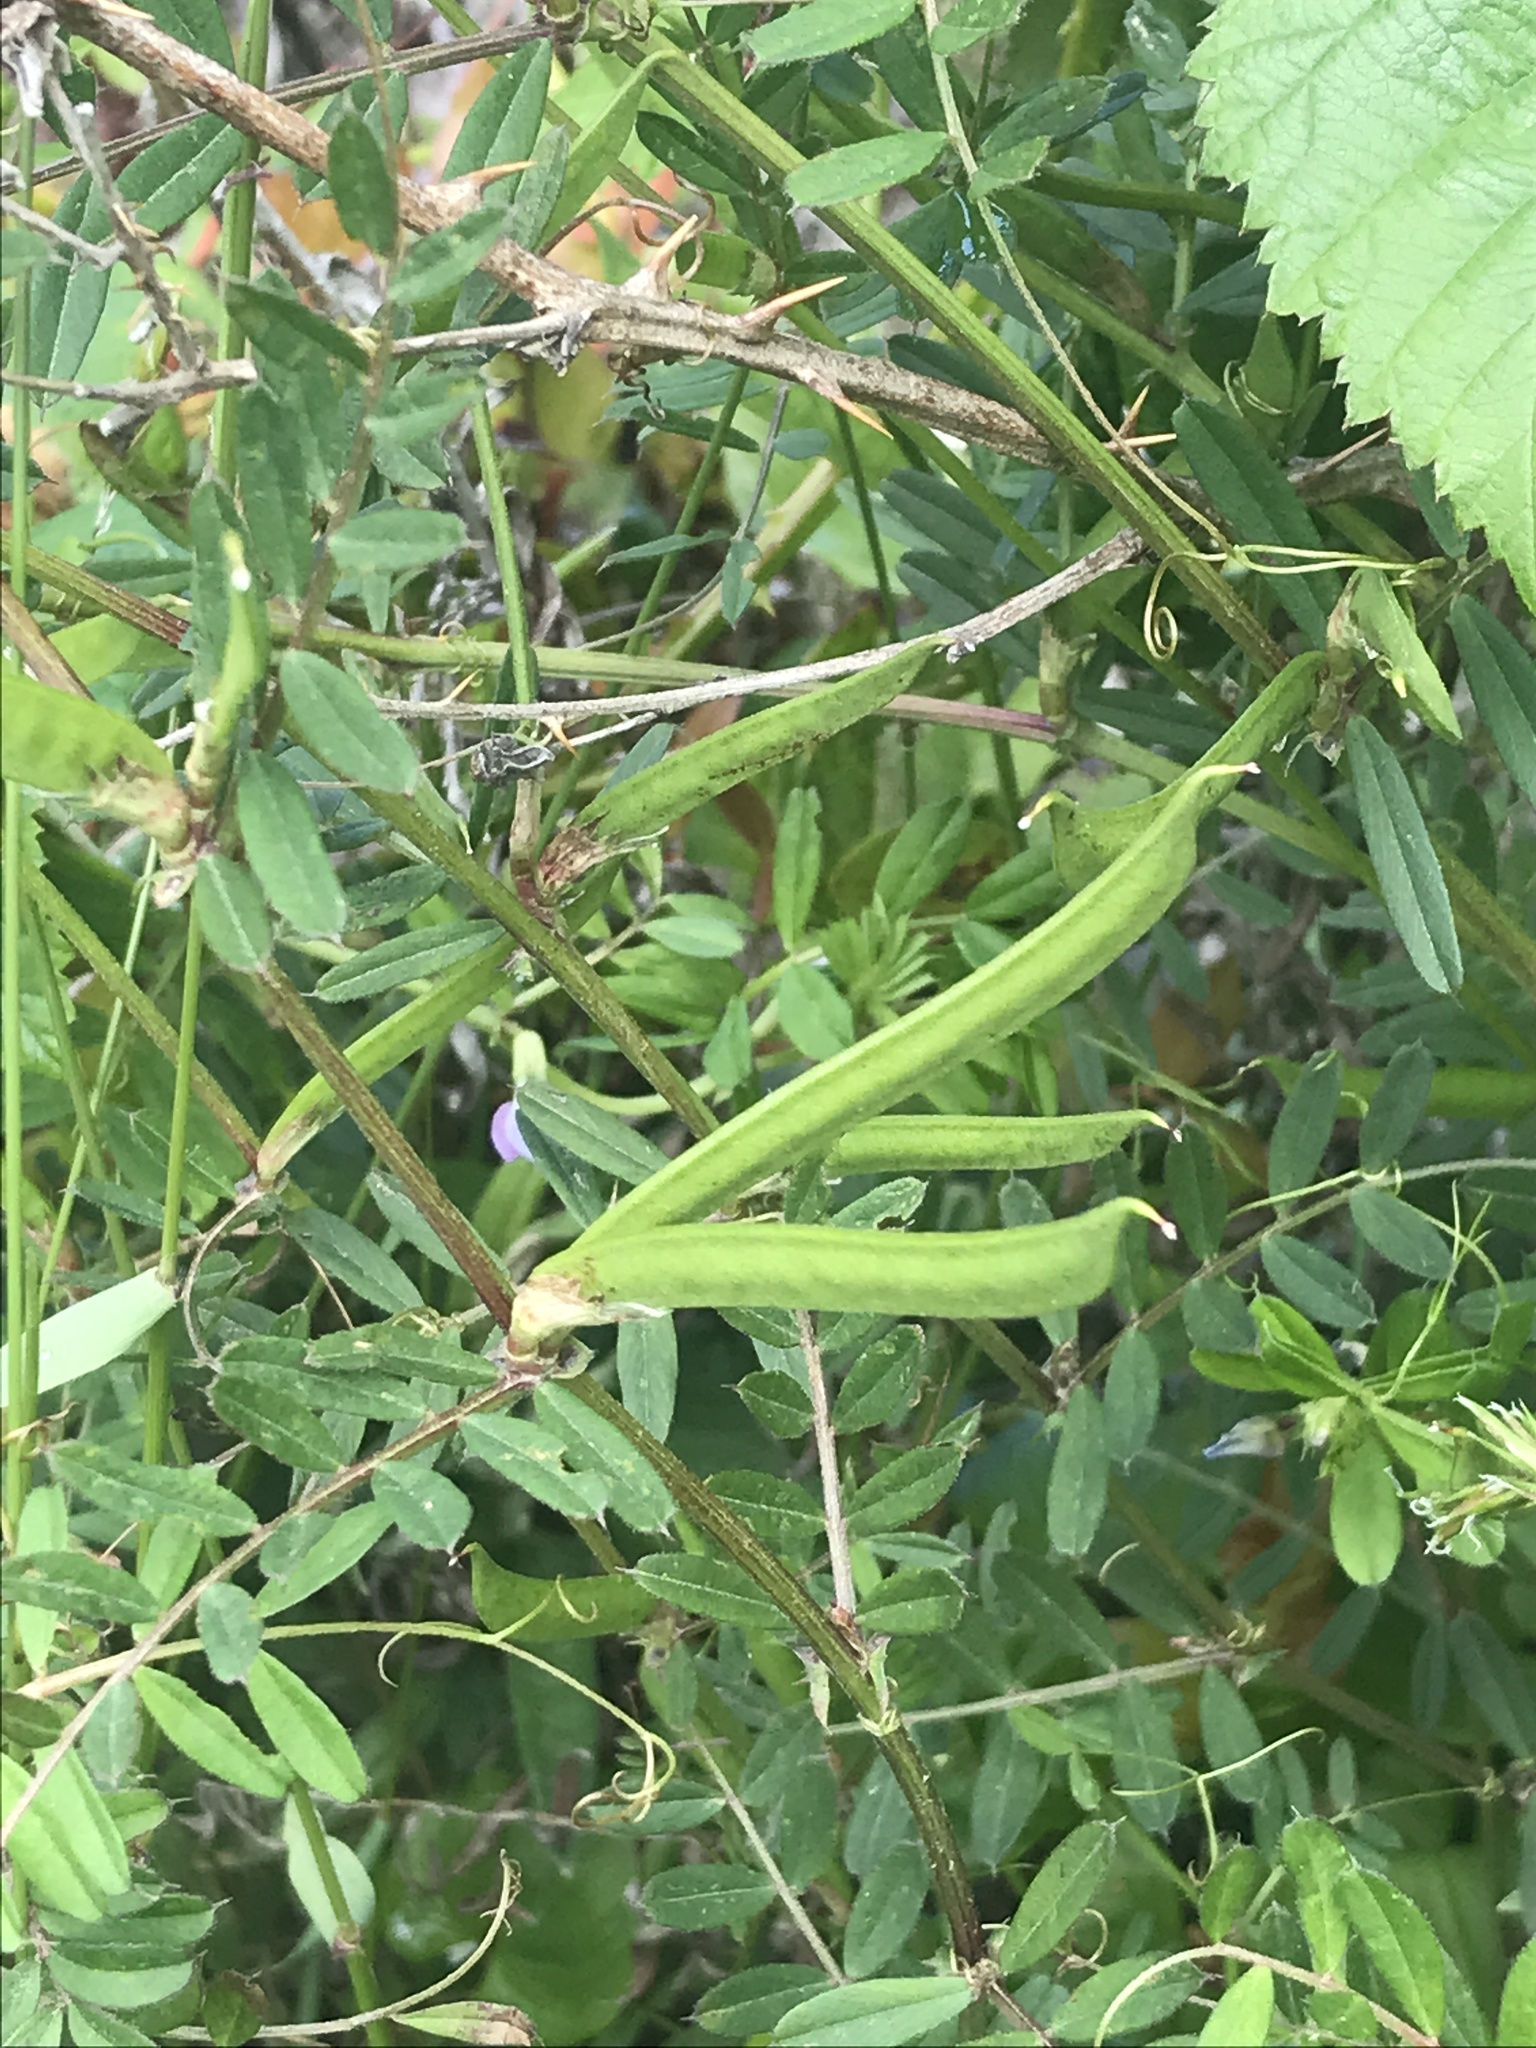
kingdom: Plantae
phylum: Tracheophyta
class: Magnoliopsida
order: Fabales
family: Fabaceae
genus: Vicia
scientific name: Vicia sativa
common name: Garden vetch
